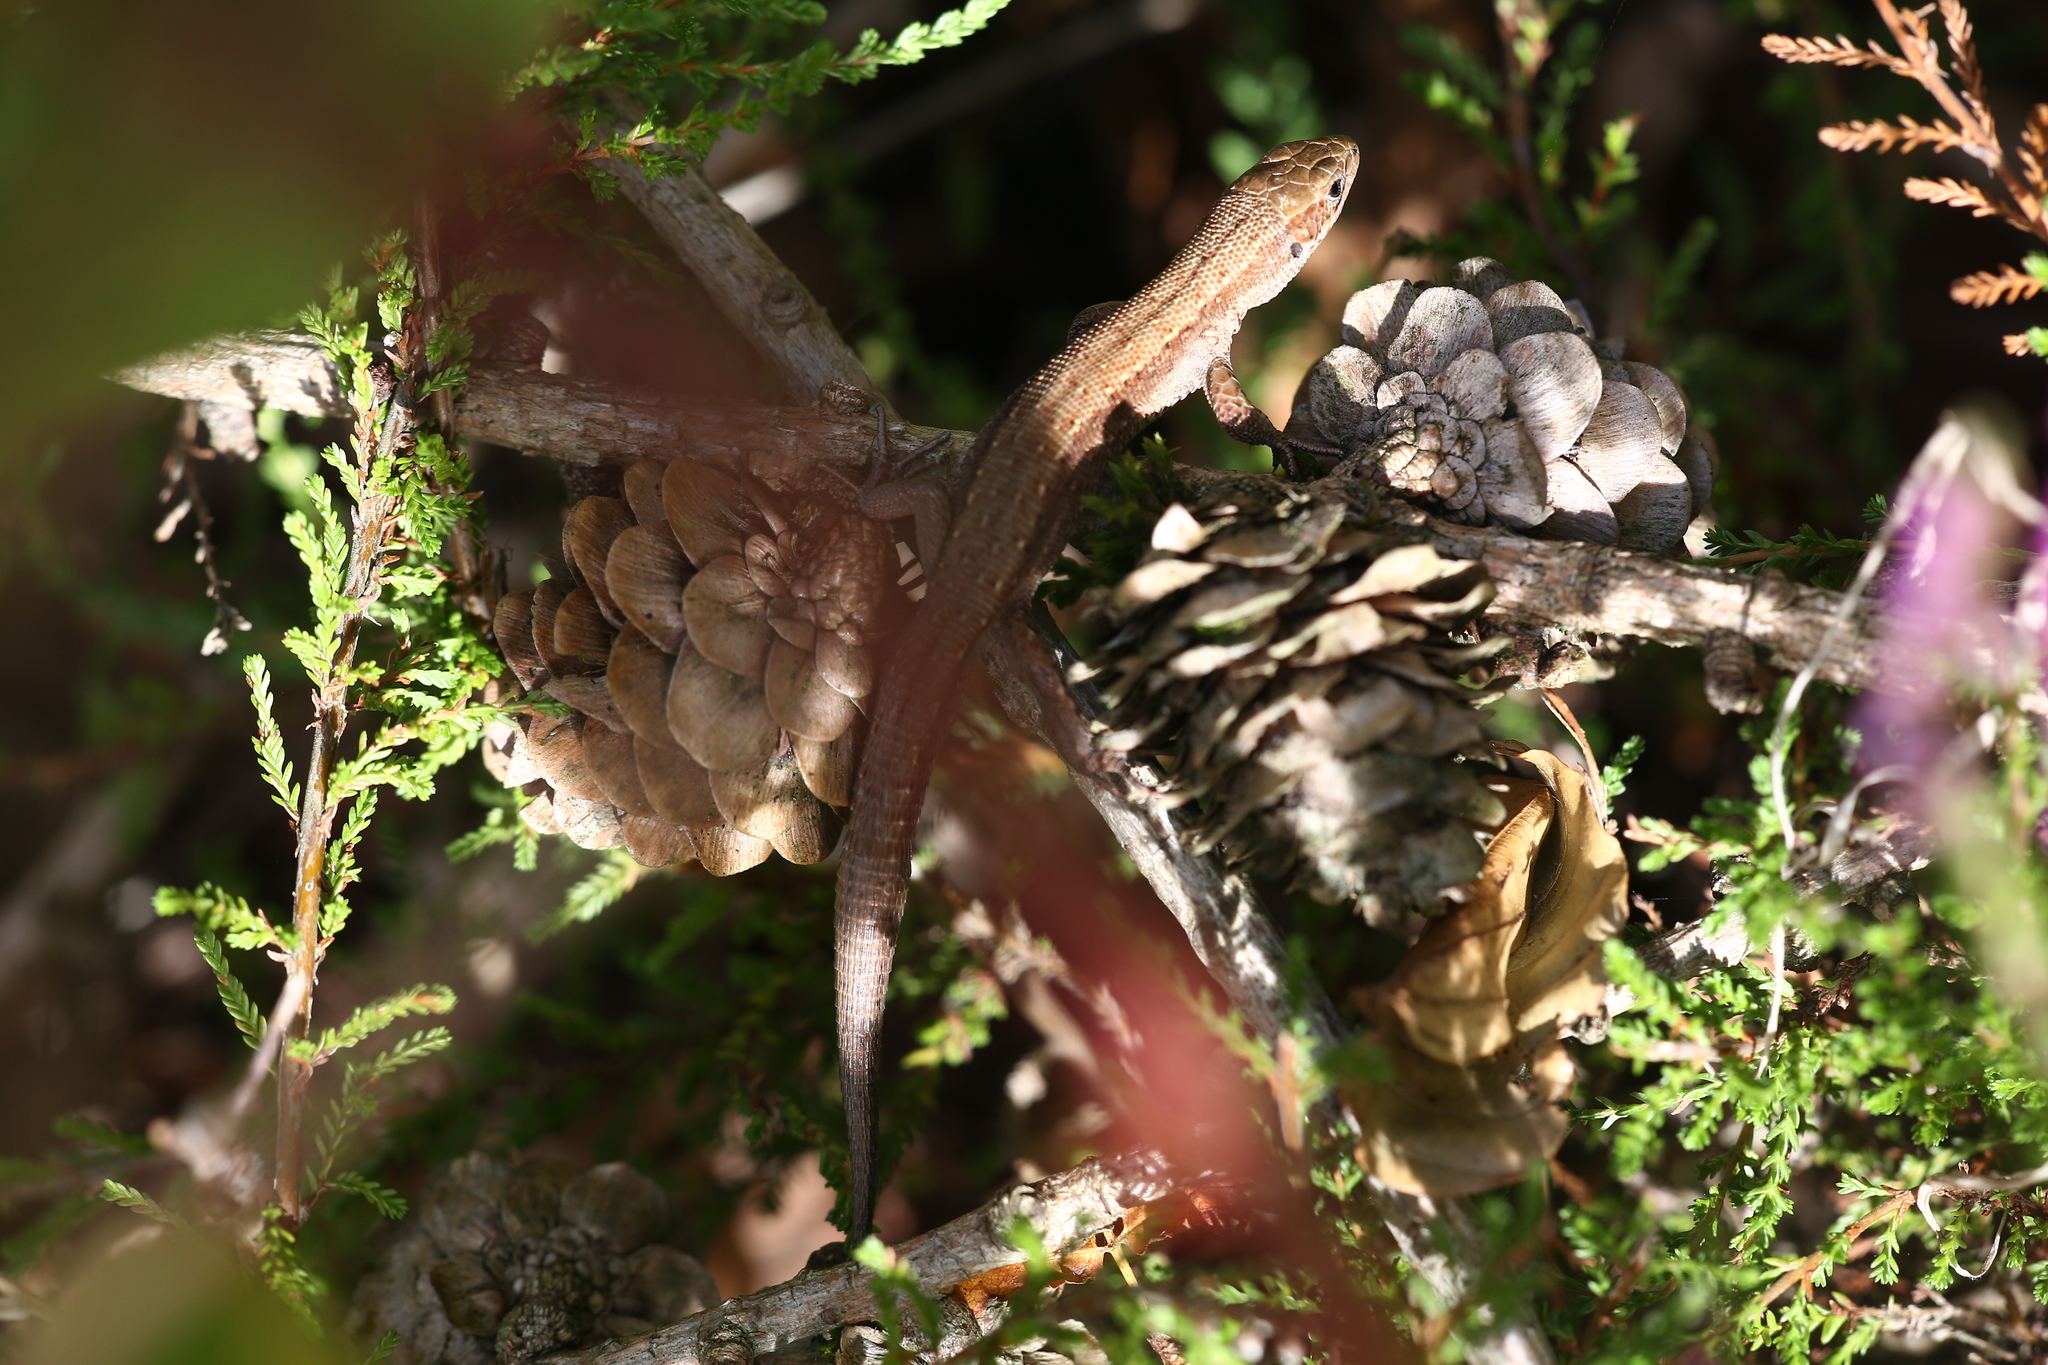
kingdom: Animalia
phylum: Chordata
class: Squamata
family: Lacertidae
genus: Zootoca
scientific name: Zootoca vivipara
